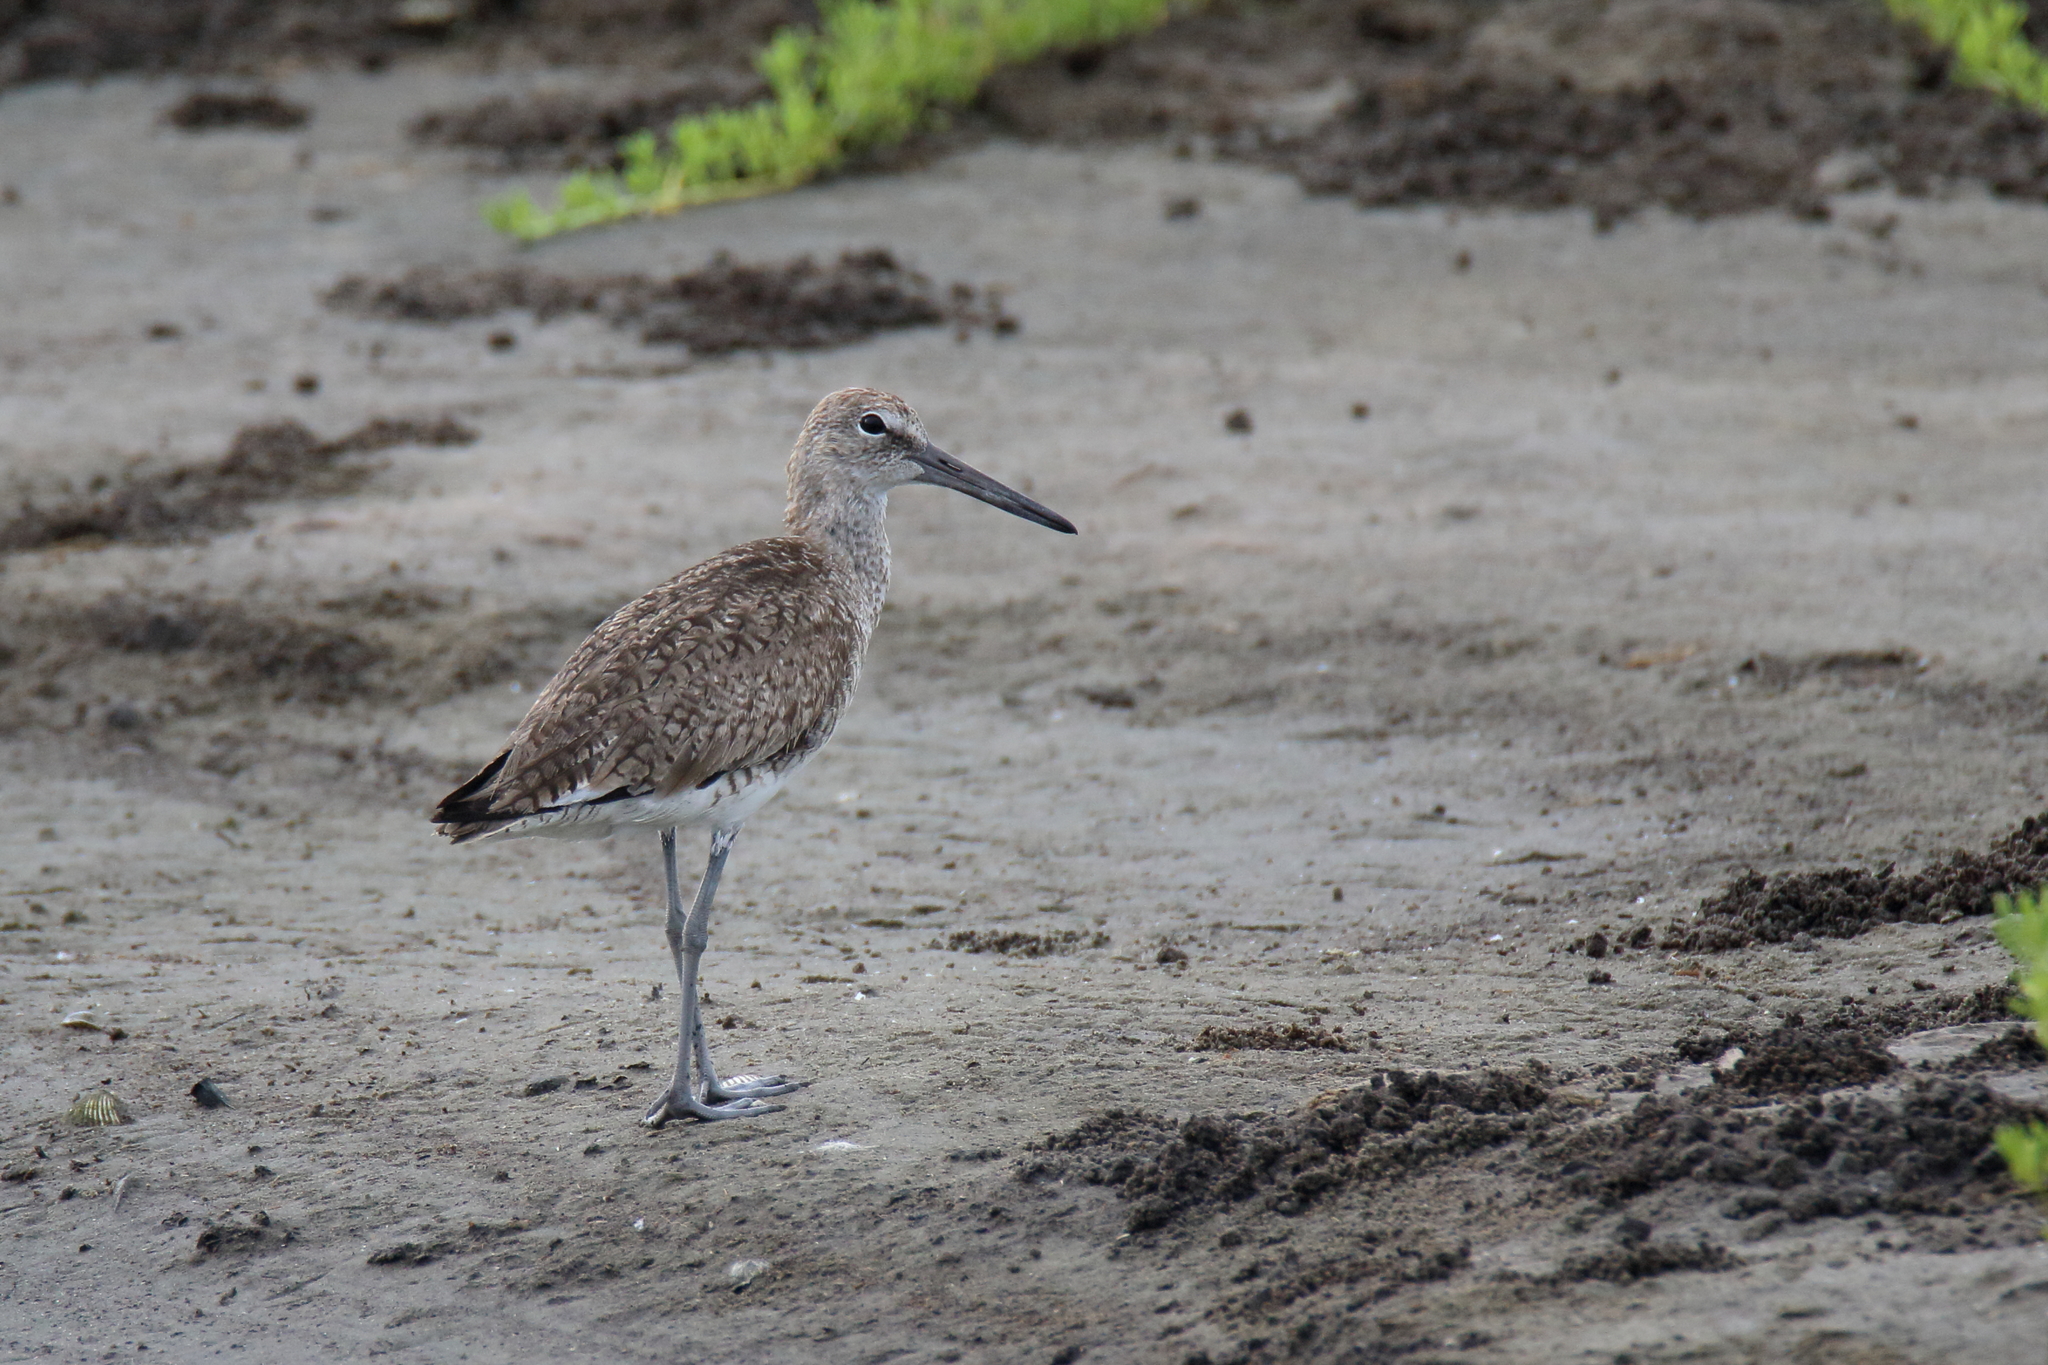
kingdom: Animalia
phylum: Chordata
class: Aves
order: Charadriiformes
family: Scolopacidae
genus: Tringa
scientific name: Tringa semipalmata
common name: Willet
